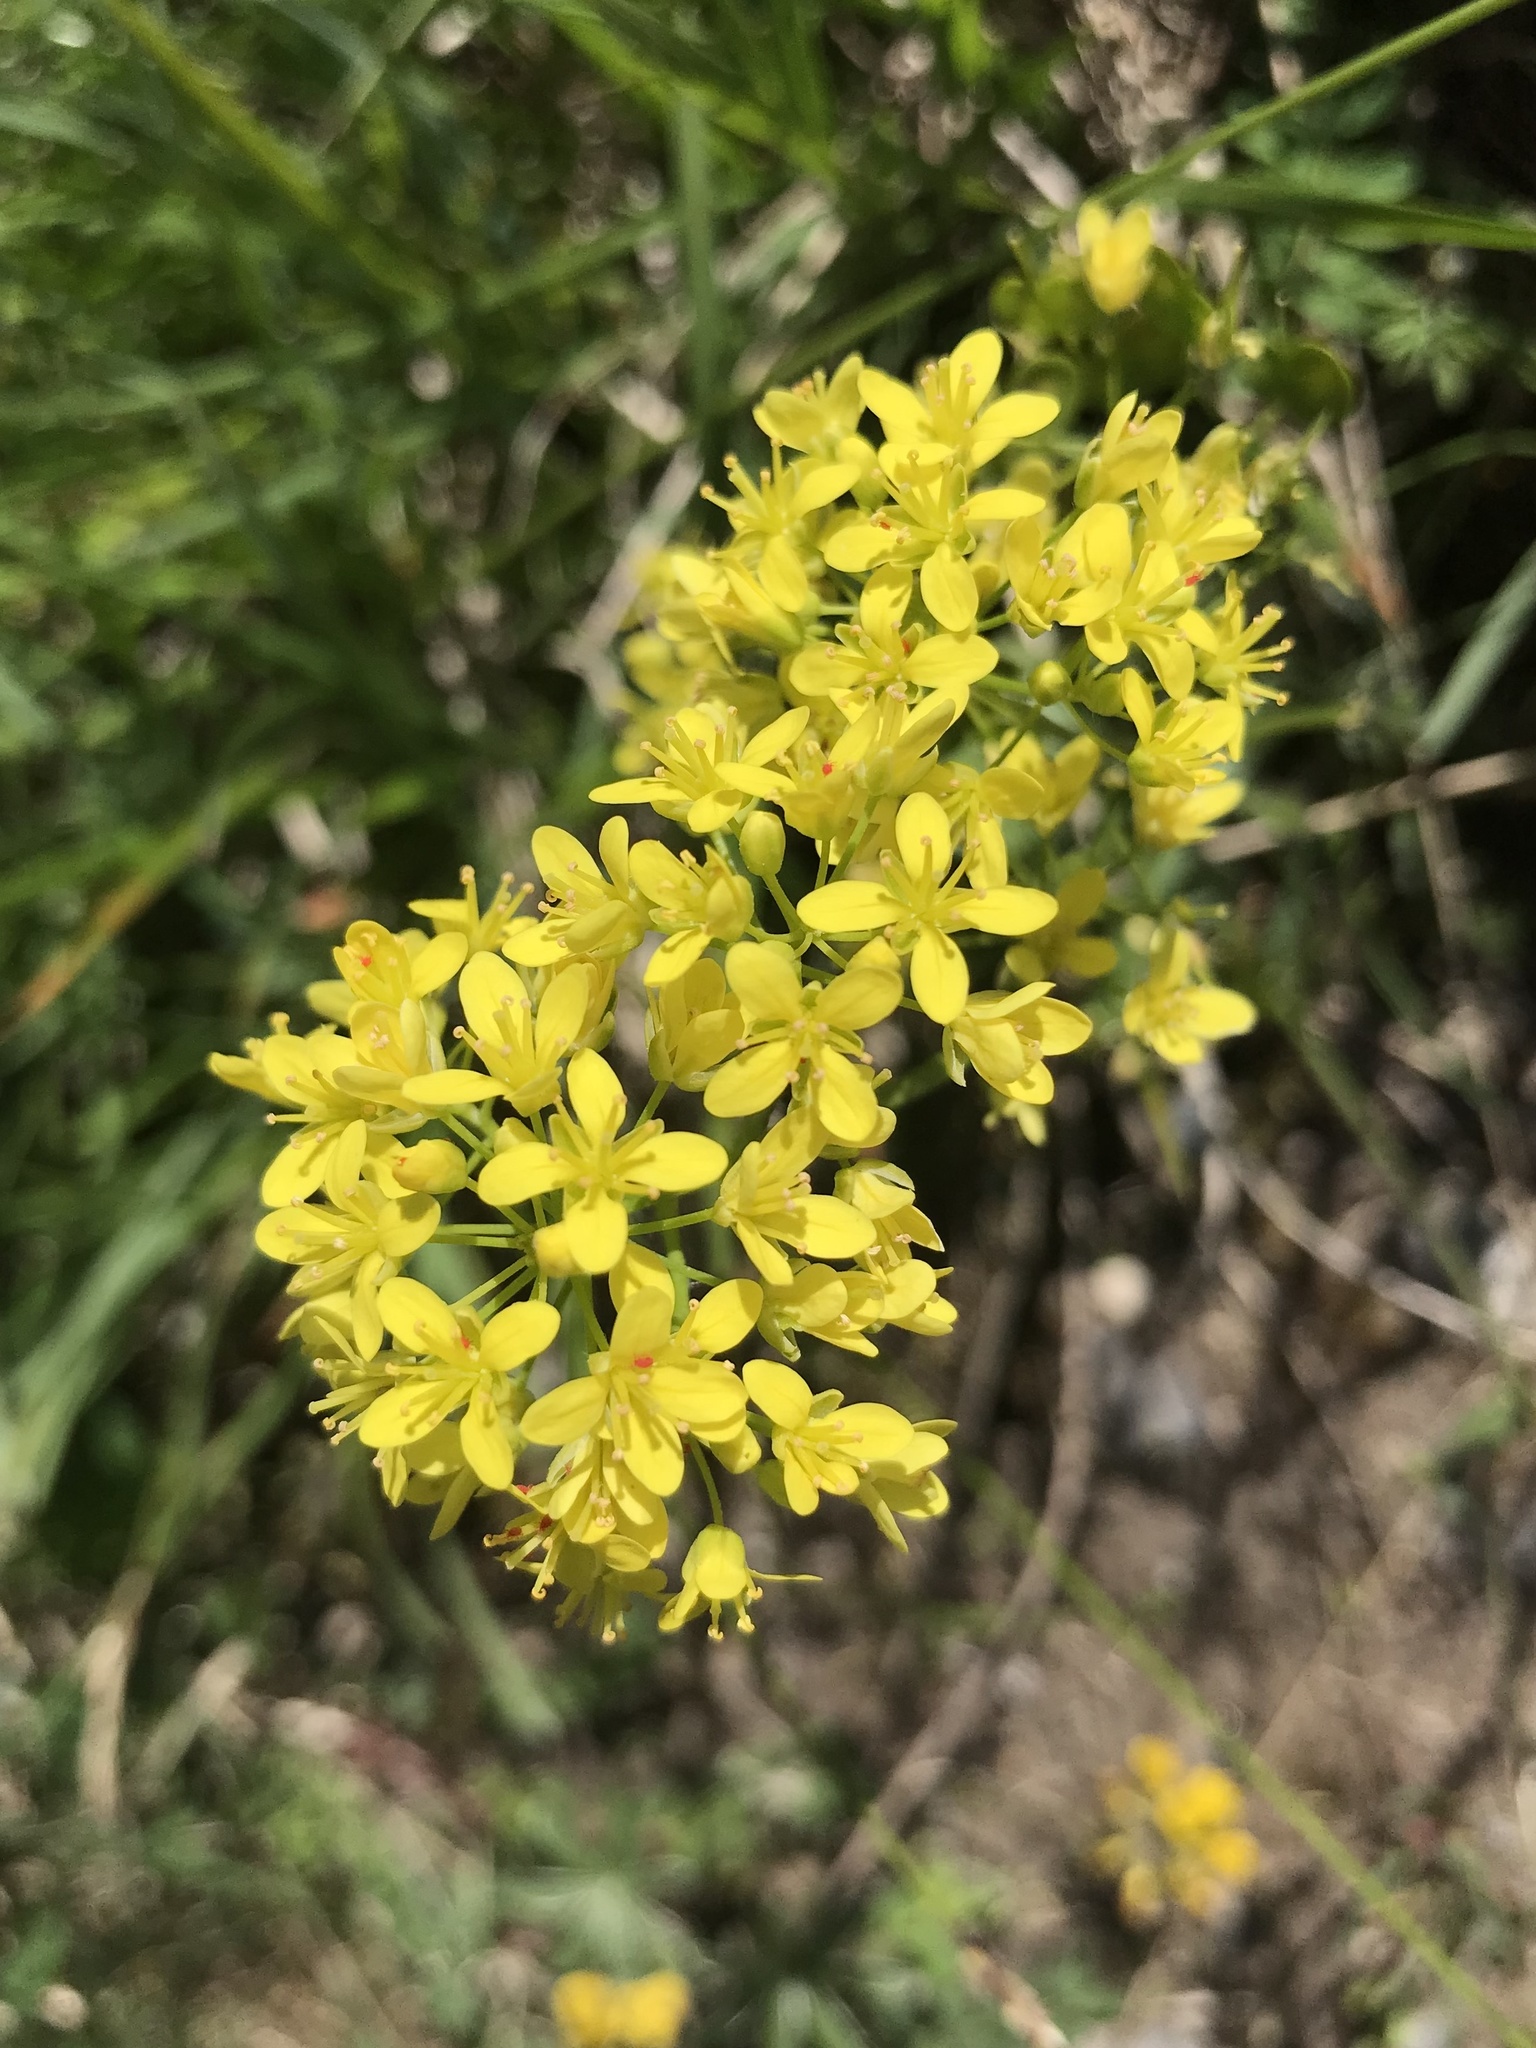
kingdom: Plantae
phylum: Tracheophyta
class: Magnoliopsida
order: Brassicales
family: Brassicaceae
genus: Biscutella
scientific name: Biscutella laevigata
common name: Buckler mustard
